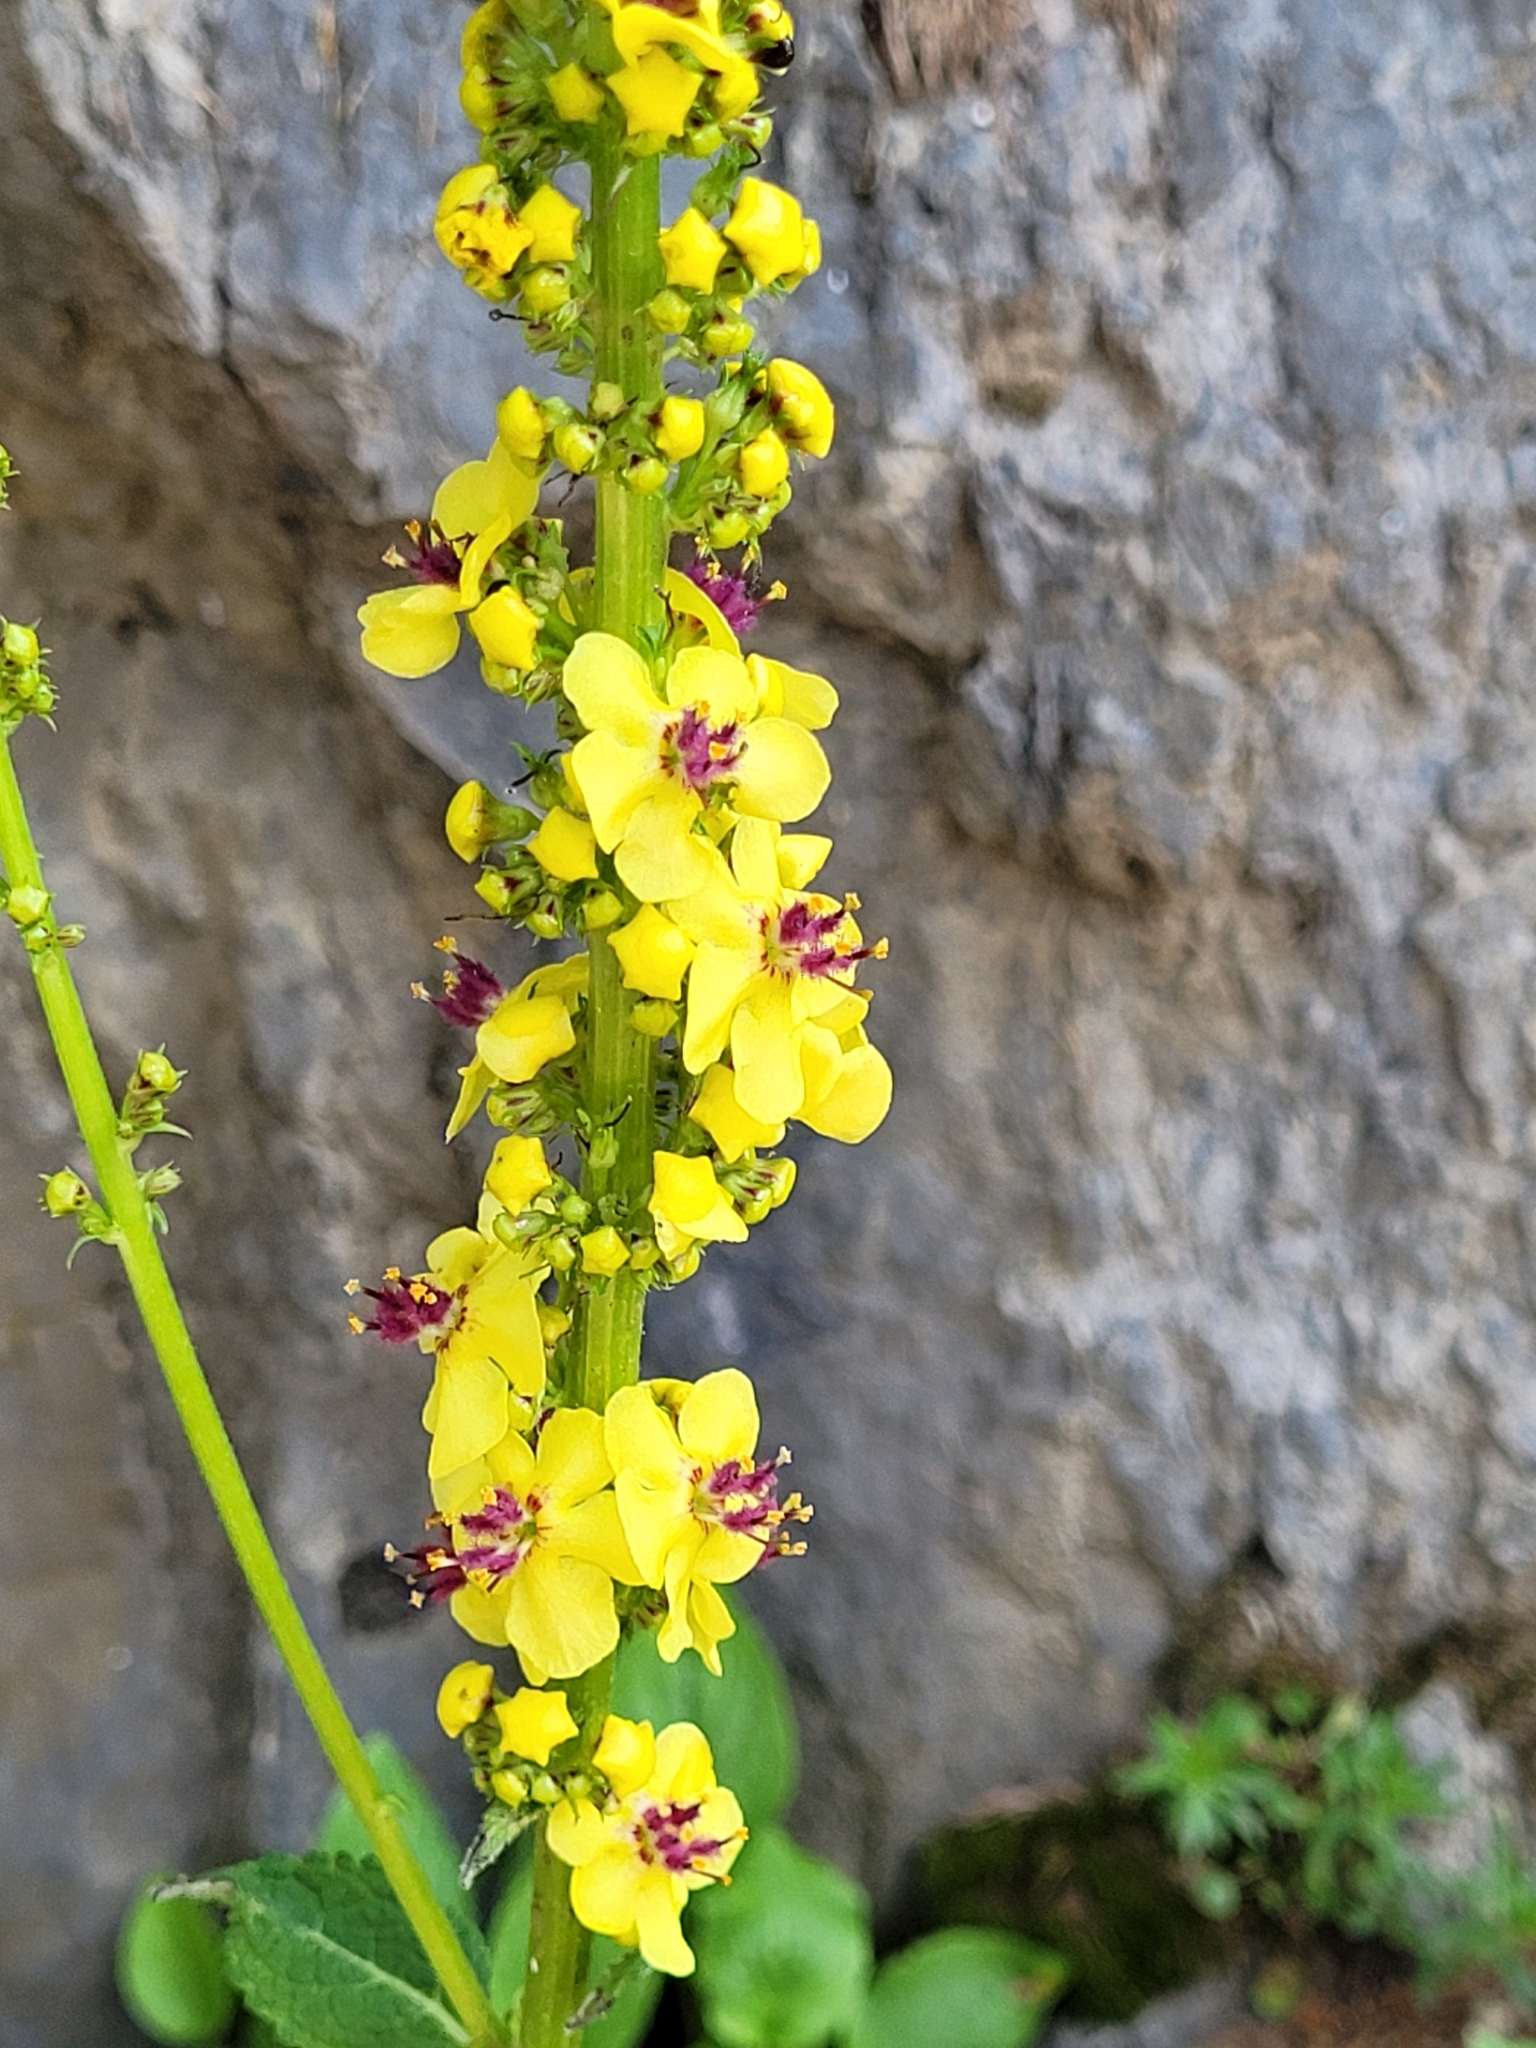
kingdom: Plantae
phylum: Tracheophyta
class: Magnoliopsida
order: Lamiales
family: Scrophulariaceae
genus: Verbascum
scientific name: Verbascum nigrum
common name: Dark mullein
